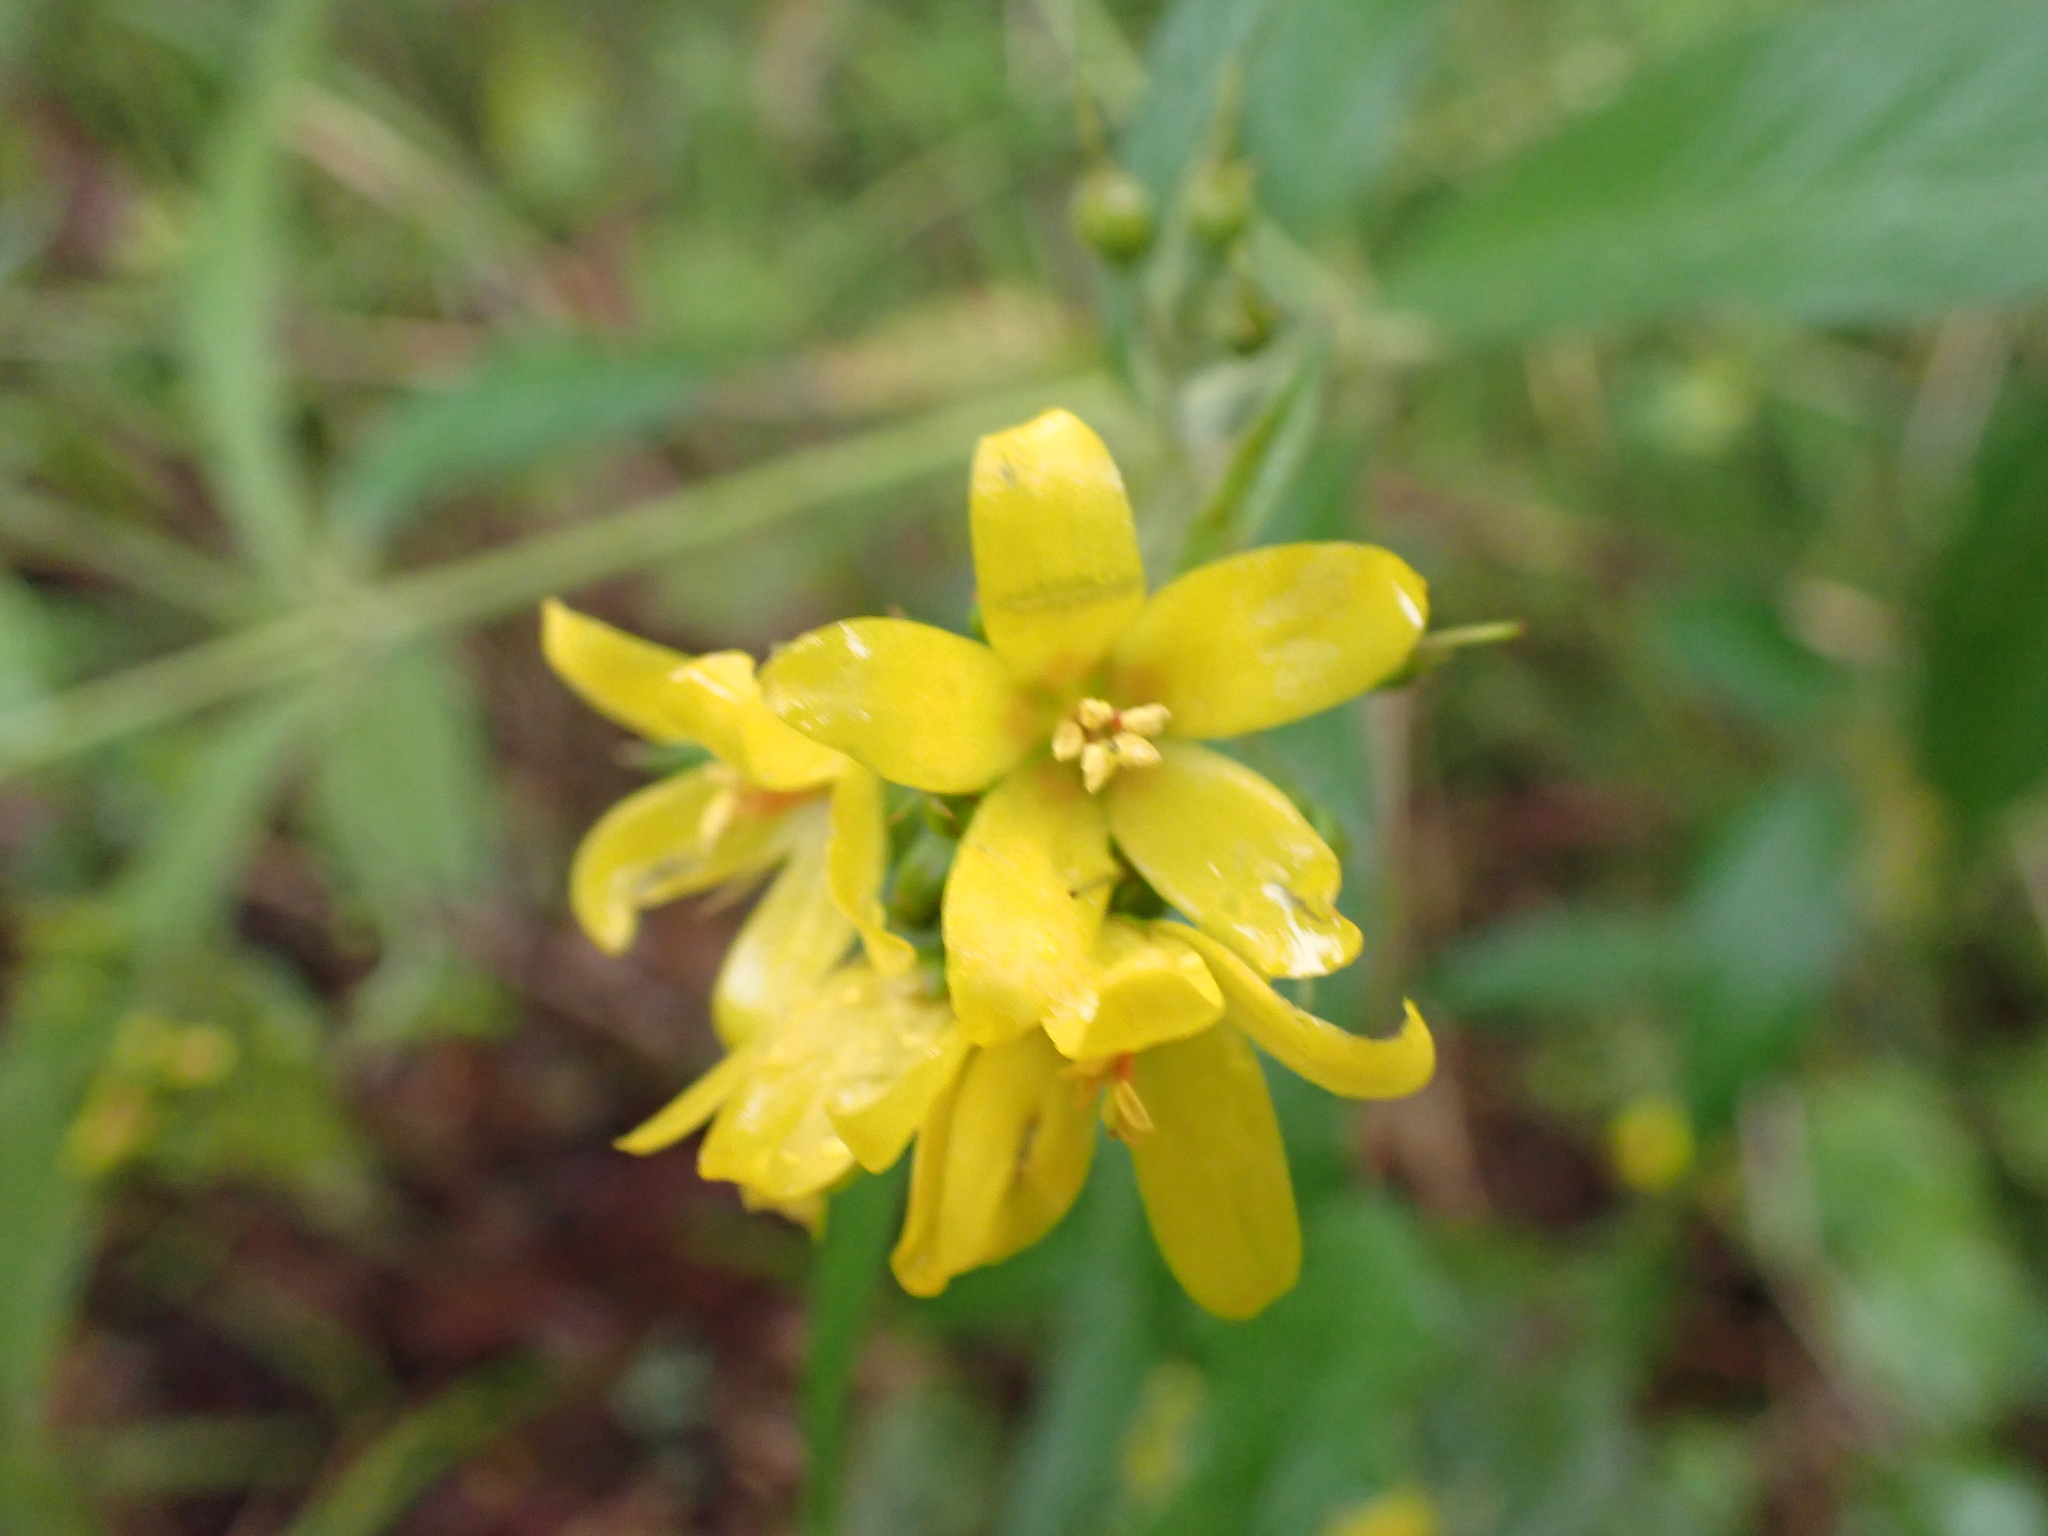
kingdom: Plantae
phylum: Tracheophyta
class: Magnoliopsida
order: Ericales
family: Primulaceae
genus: Lysimachia
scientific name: Lysimachia vulgaris
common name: Yellow loosestrife
